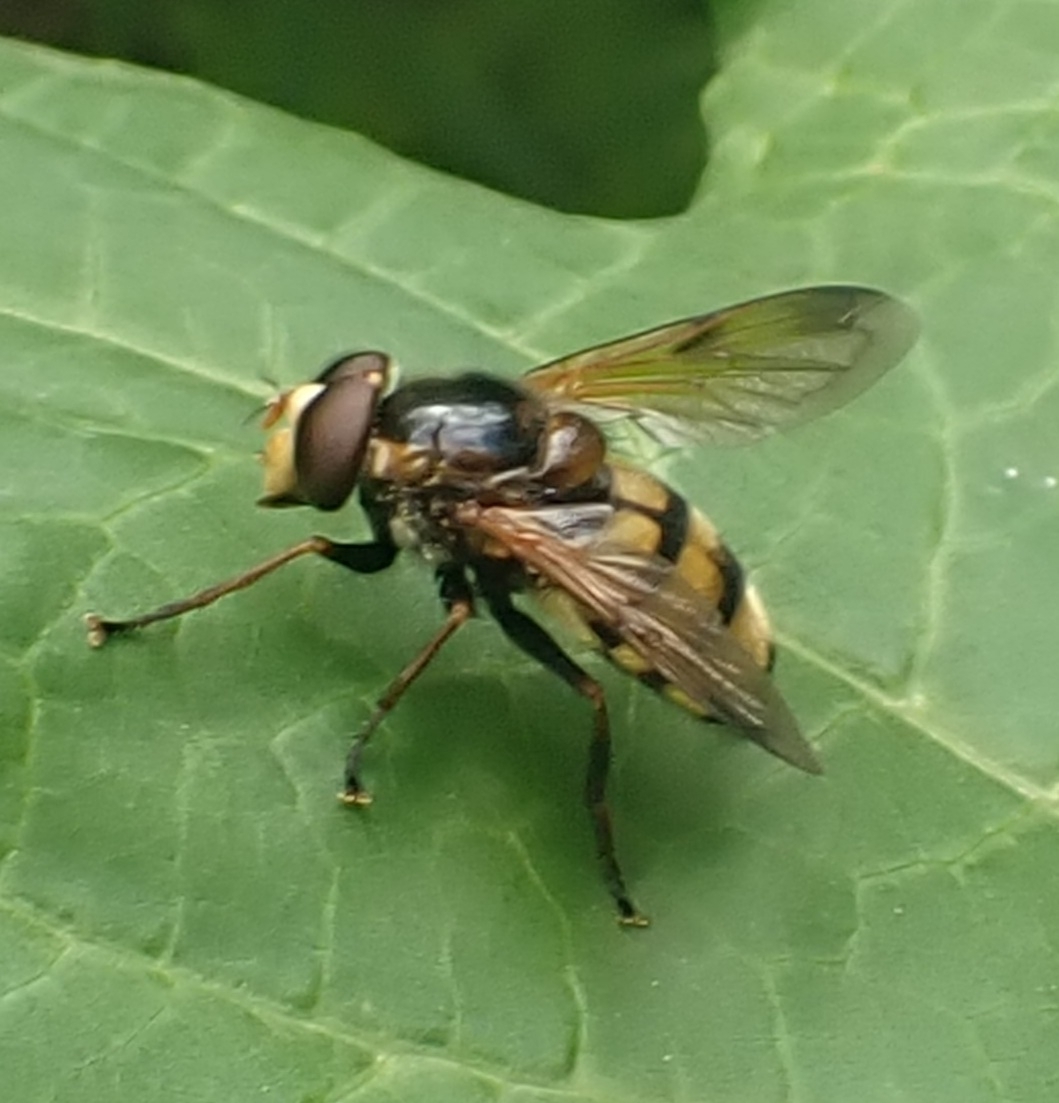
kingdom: Animalia
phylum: Arthropoda
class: Insecta
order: Diptera
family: Syrphidae
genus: Volucella
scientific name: Volucella inanis
